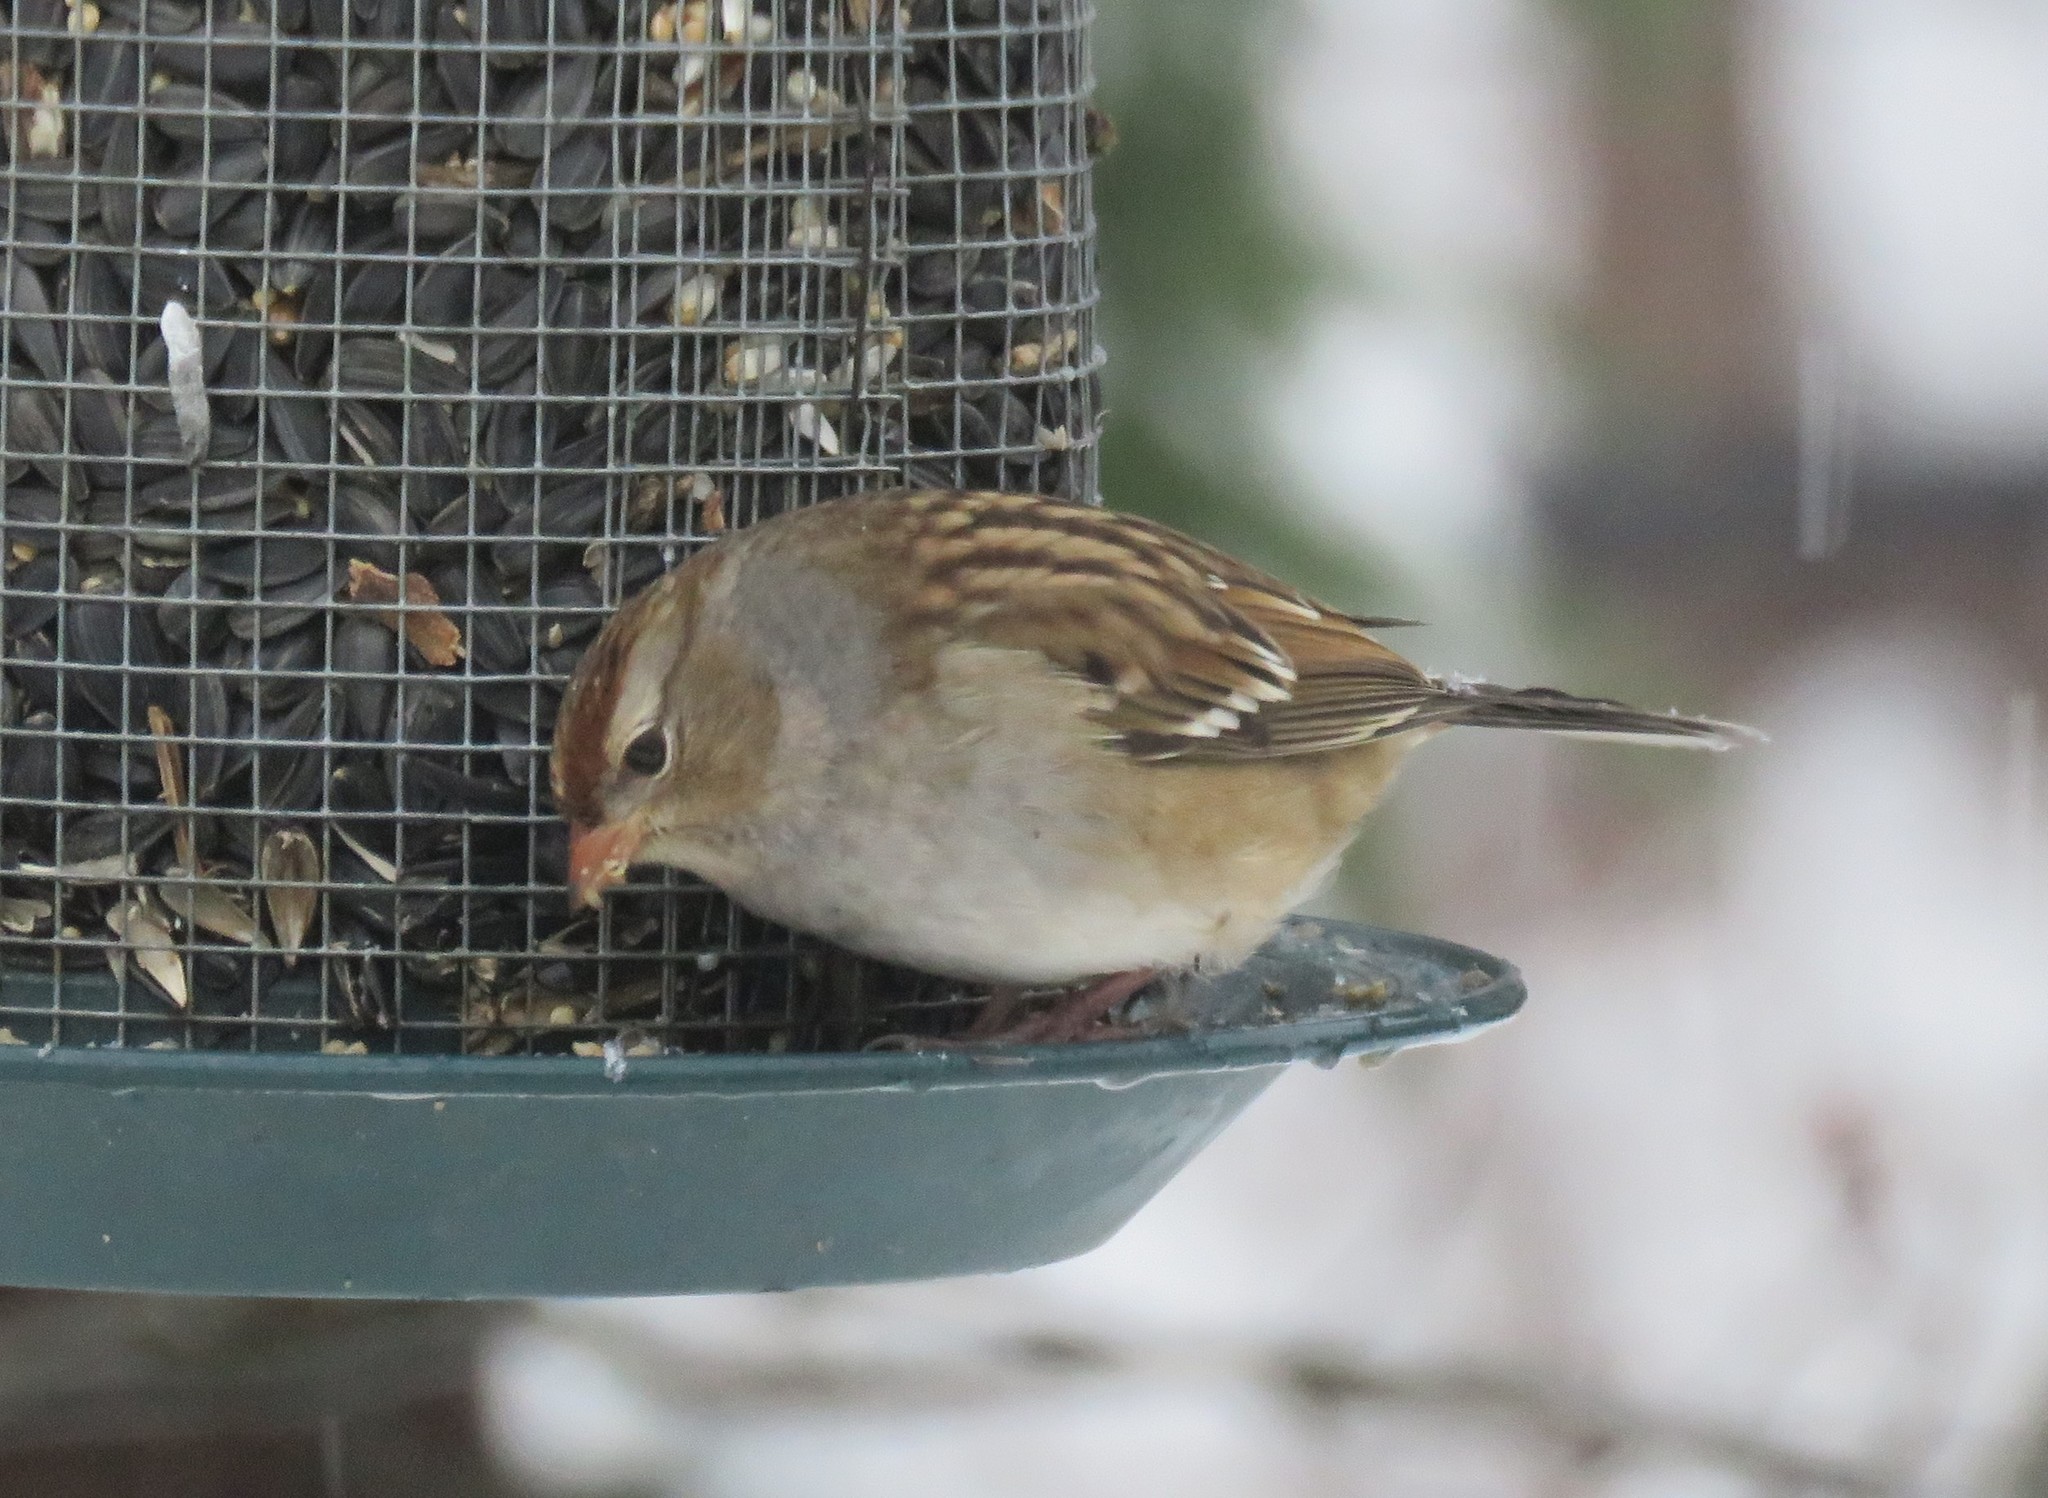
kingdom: Animalia
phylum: Chordata
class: Aves
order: Passeriformes
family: Passerellidae
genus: Zonotrichia
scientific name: Zonotrichia leucophrys
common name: White-crowned sparrow
